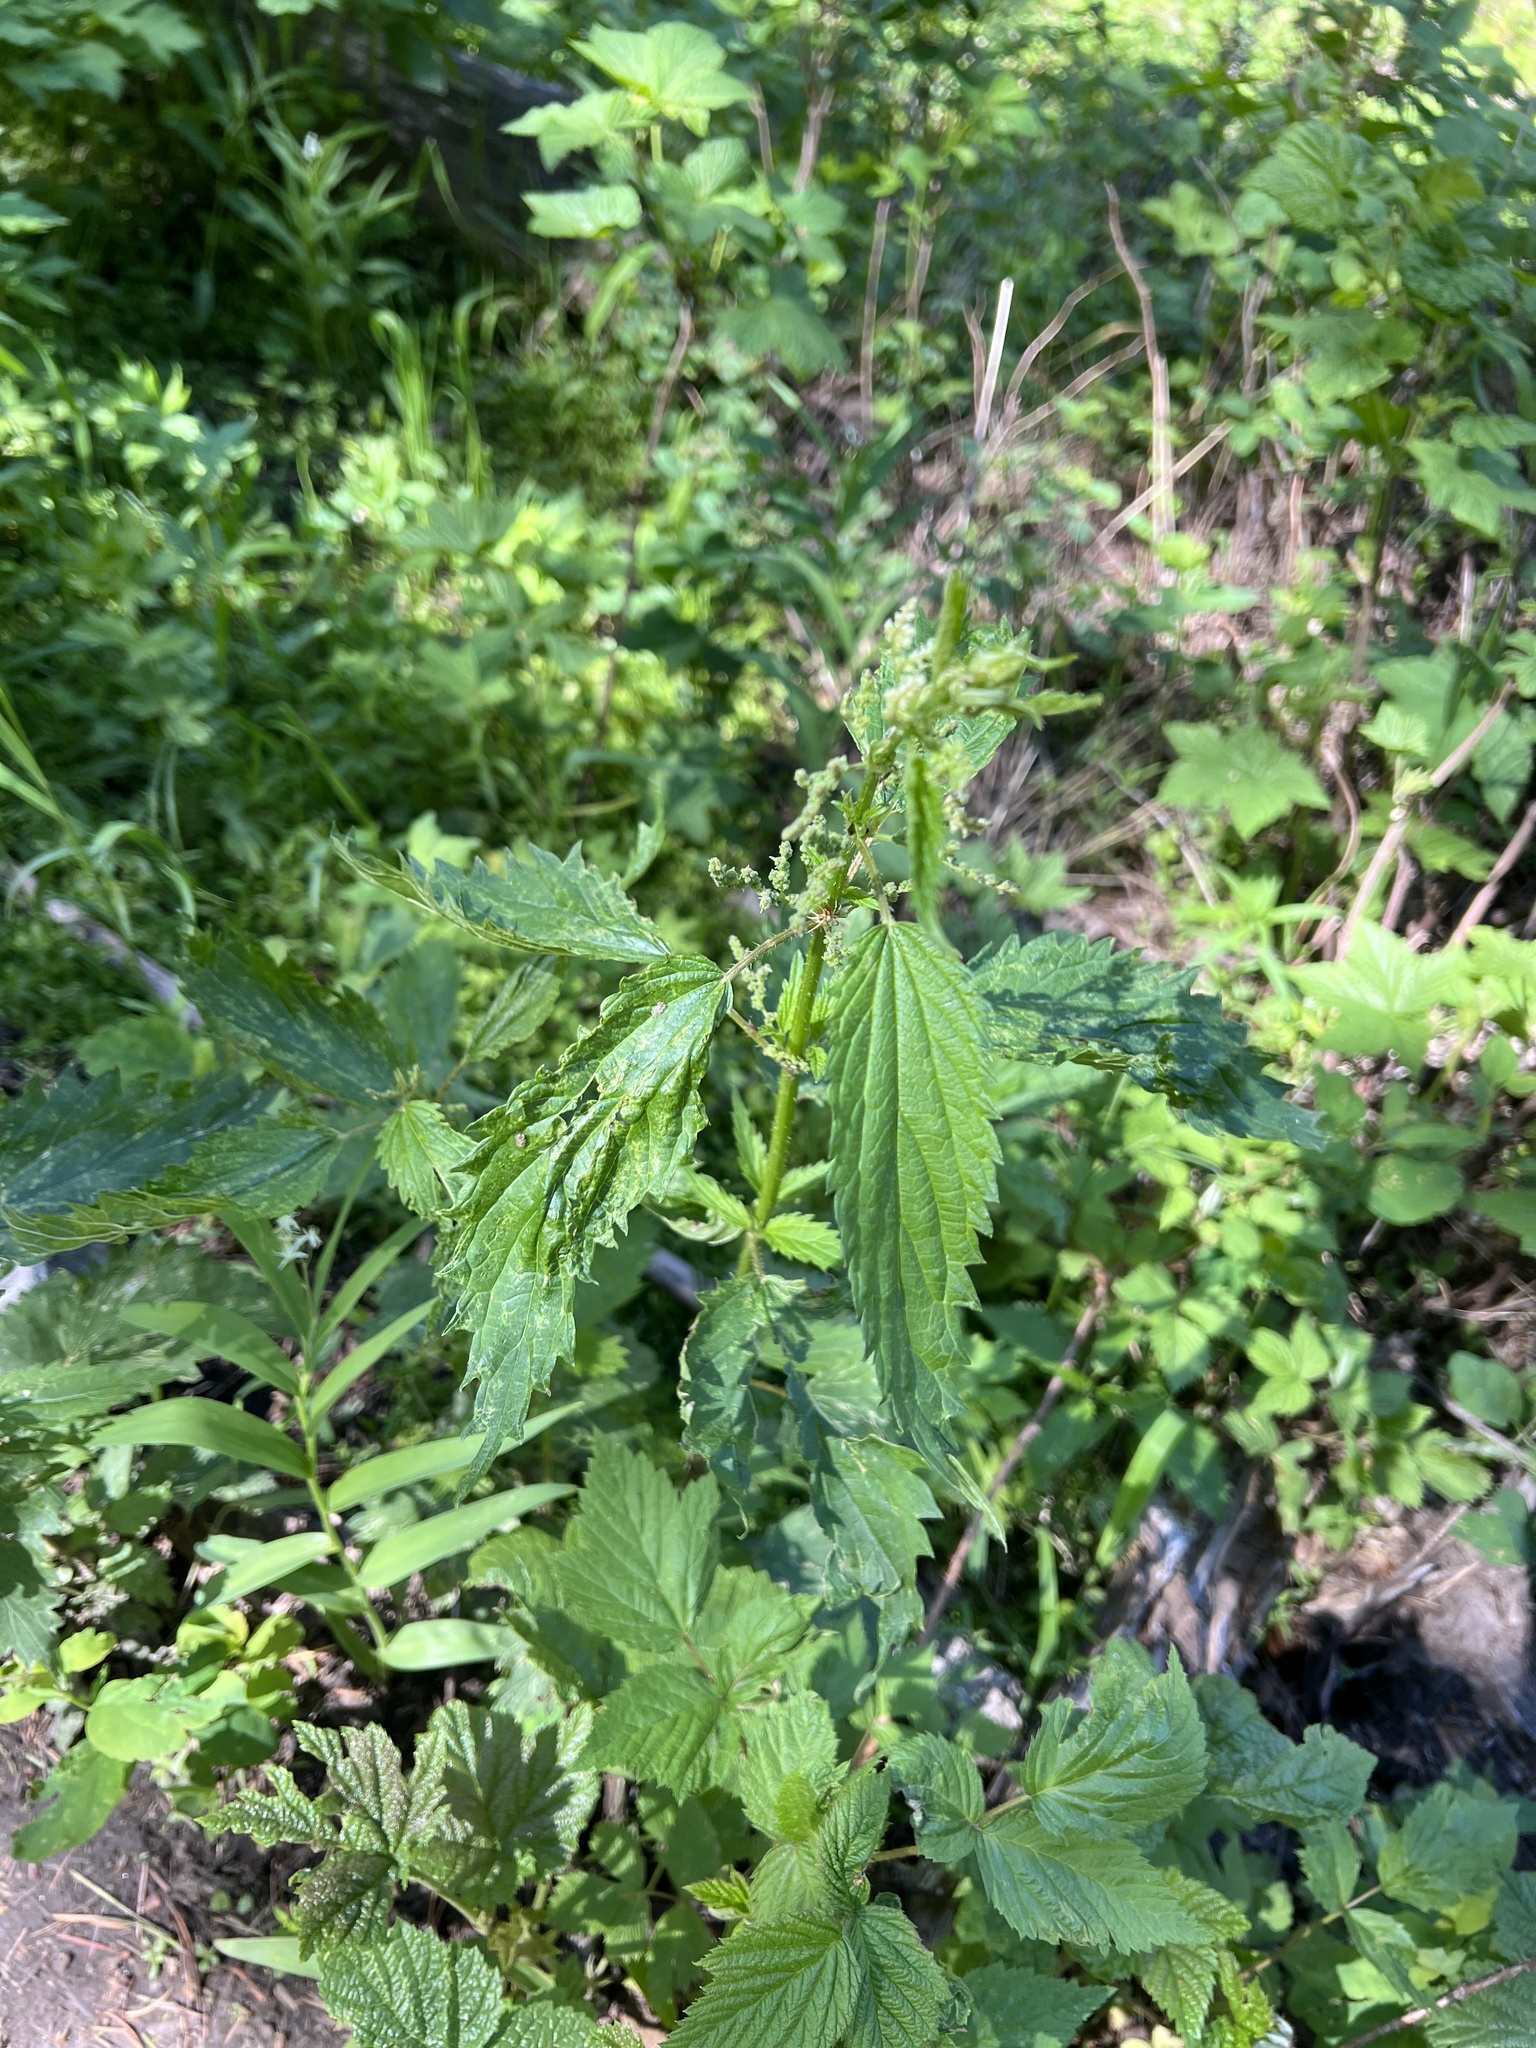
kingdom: Plantae
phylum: Tracheophyta
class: Magnoliopsida
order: Rosales
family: Urticaceae
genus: Urtica
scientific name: Urtica dioica
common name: Common nettle
